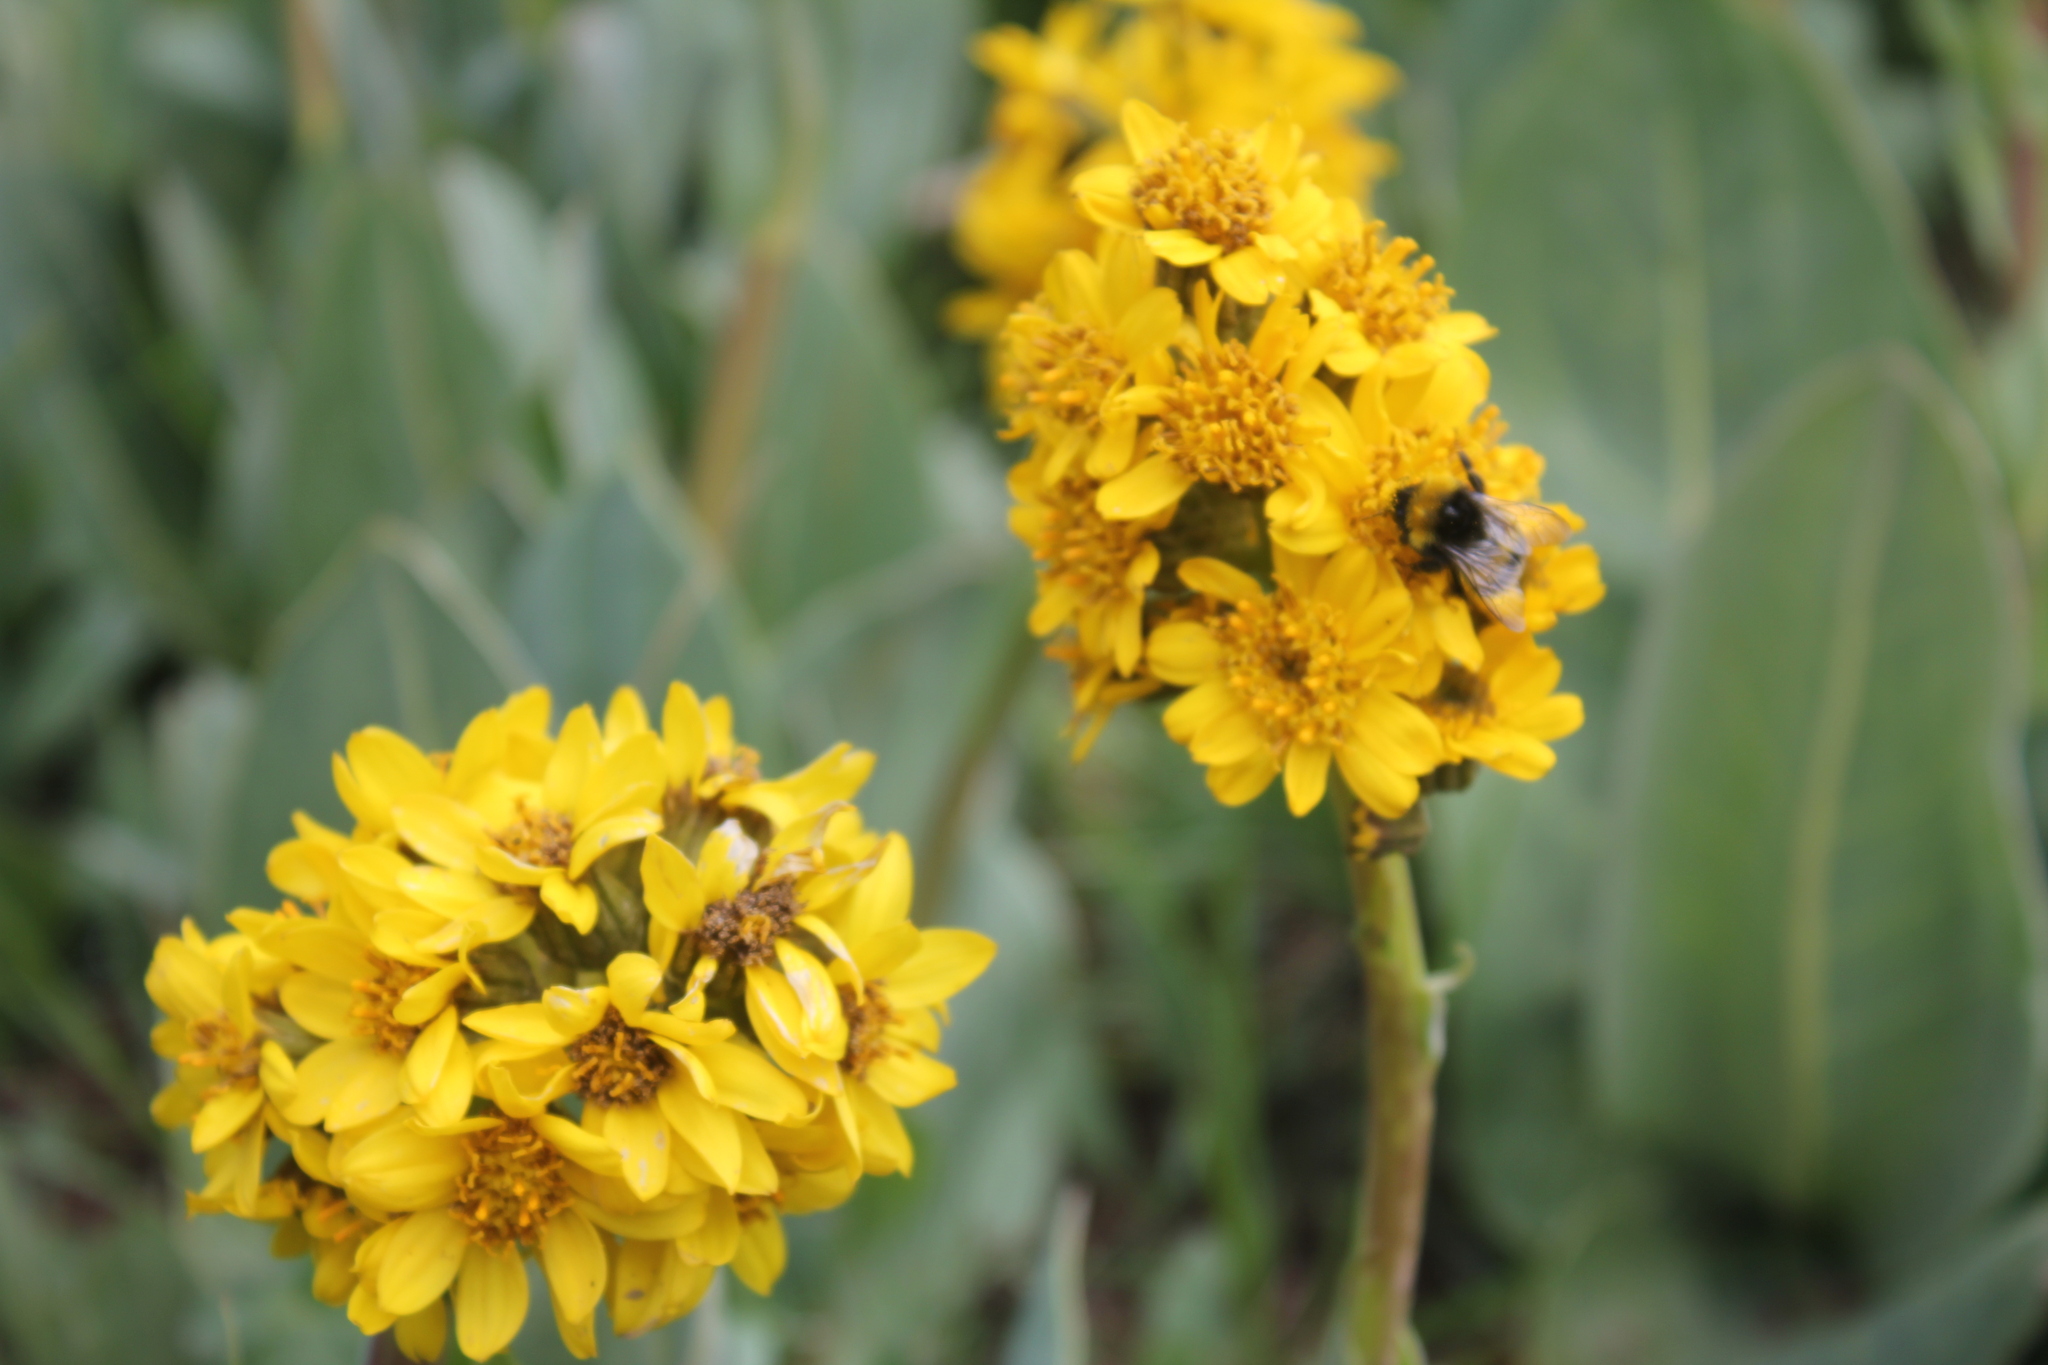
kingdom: Plantae
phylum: Tracheophyta
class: Magnoliopsida
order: Asterales
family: Asteraceae
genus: Ligularia
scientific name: Ligularia alpigena
